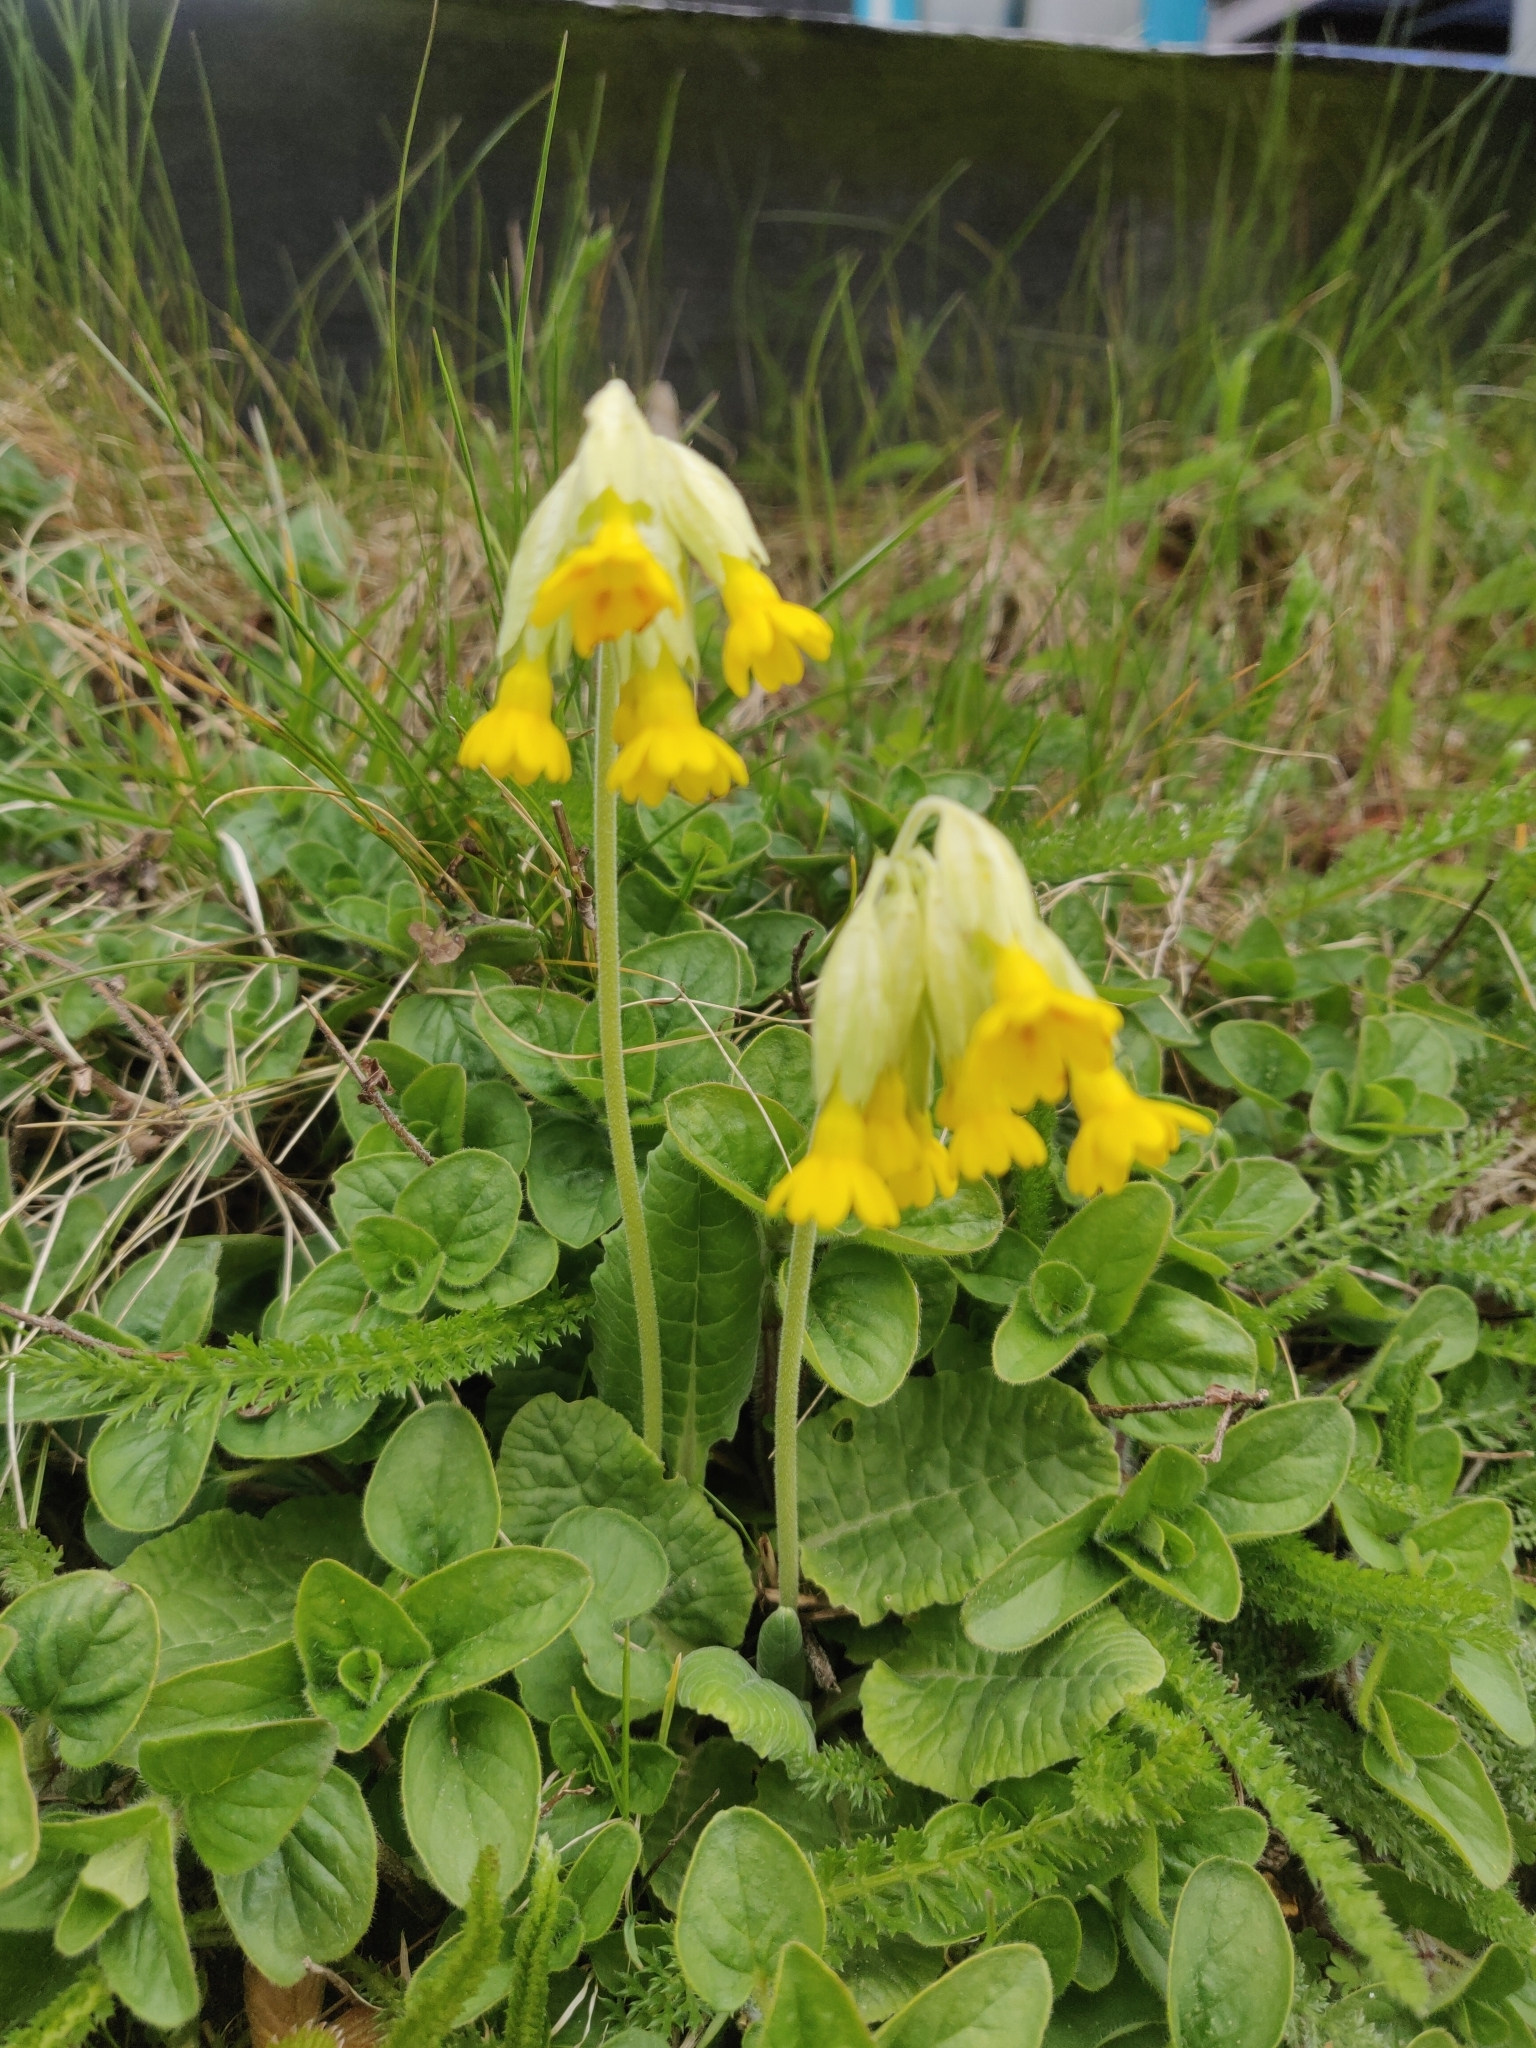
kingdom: Plantae
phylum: Tracheophyta
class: Magnoliopsida
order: Ericales
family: Primulaceae
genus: Primula
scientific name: Primula veris
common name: Cowslip
